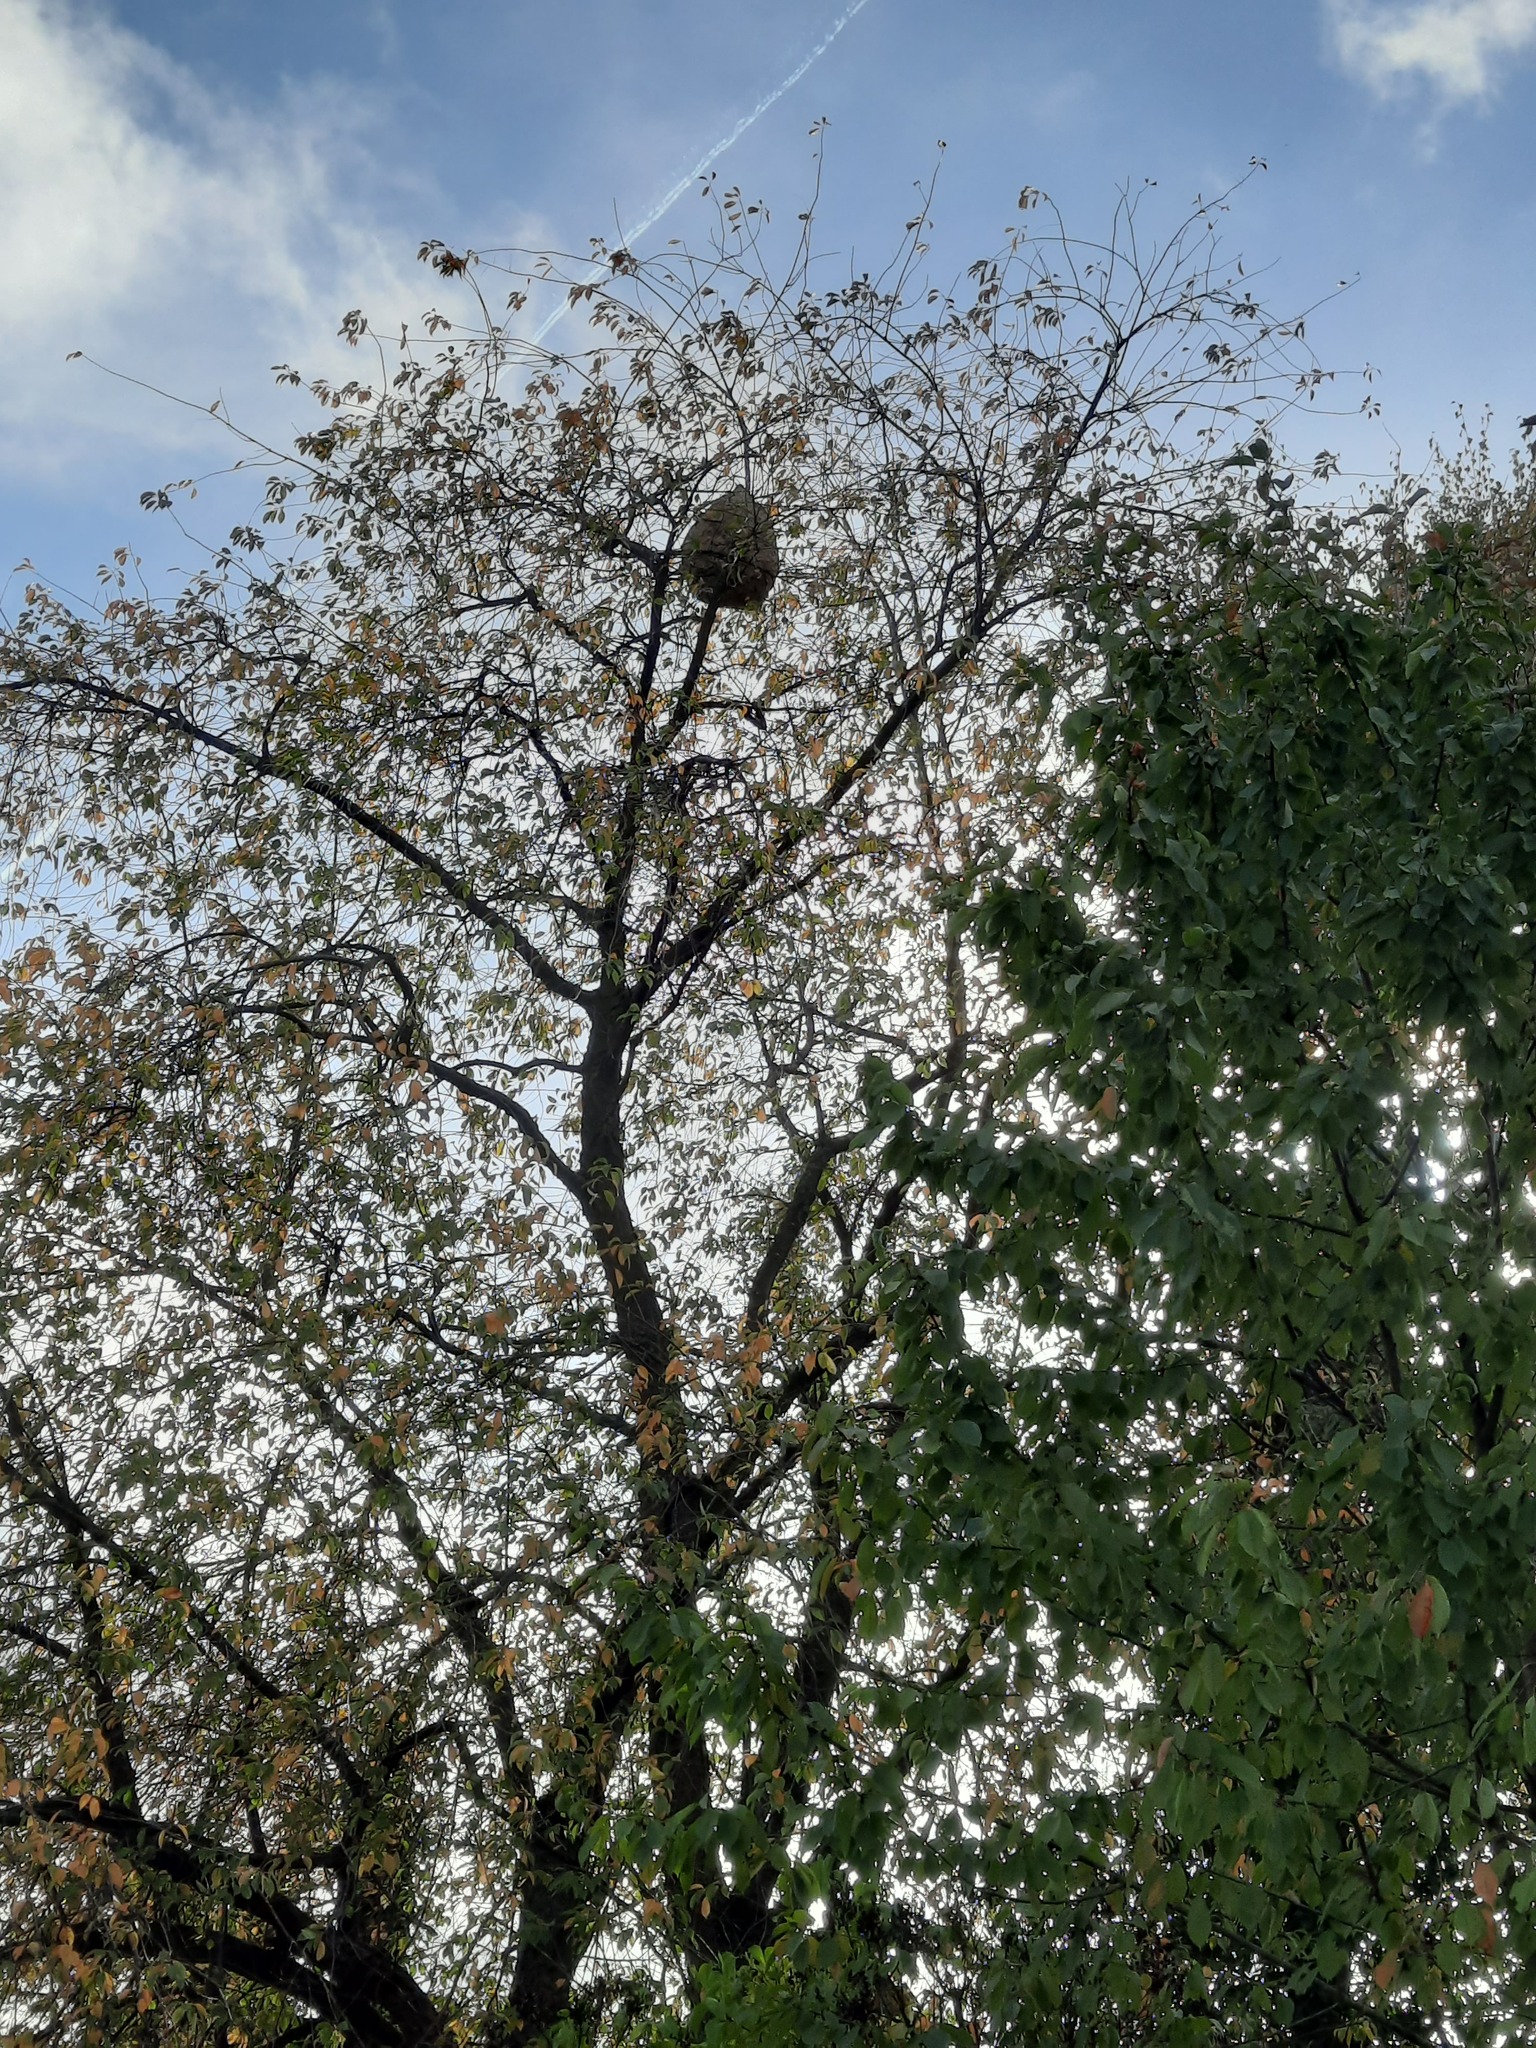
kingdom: Animalia
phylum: Arthropoda
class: Insecta
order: Hymenoptera
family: Vespidae
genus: Vespa
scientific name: Vespa velutina
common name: Asian hornet
